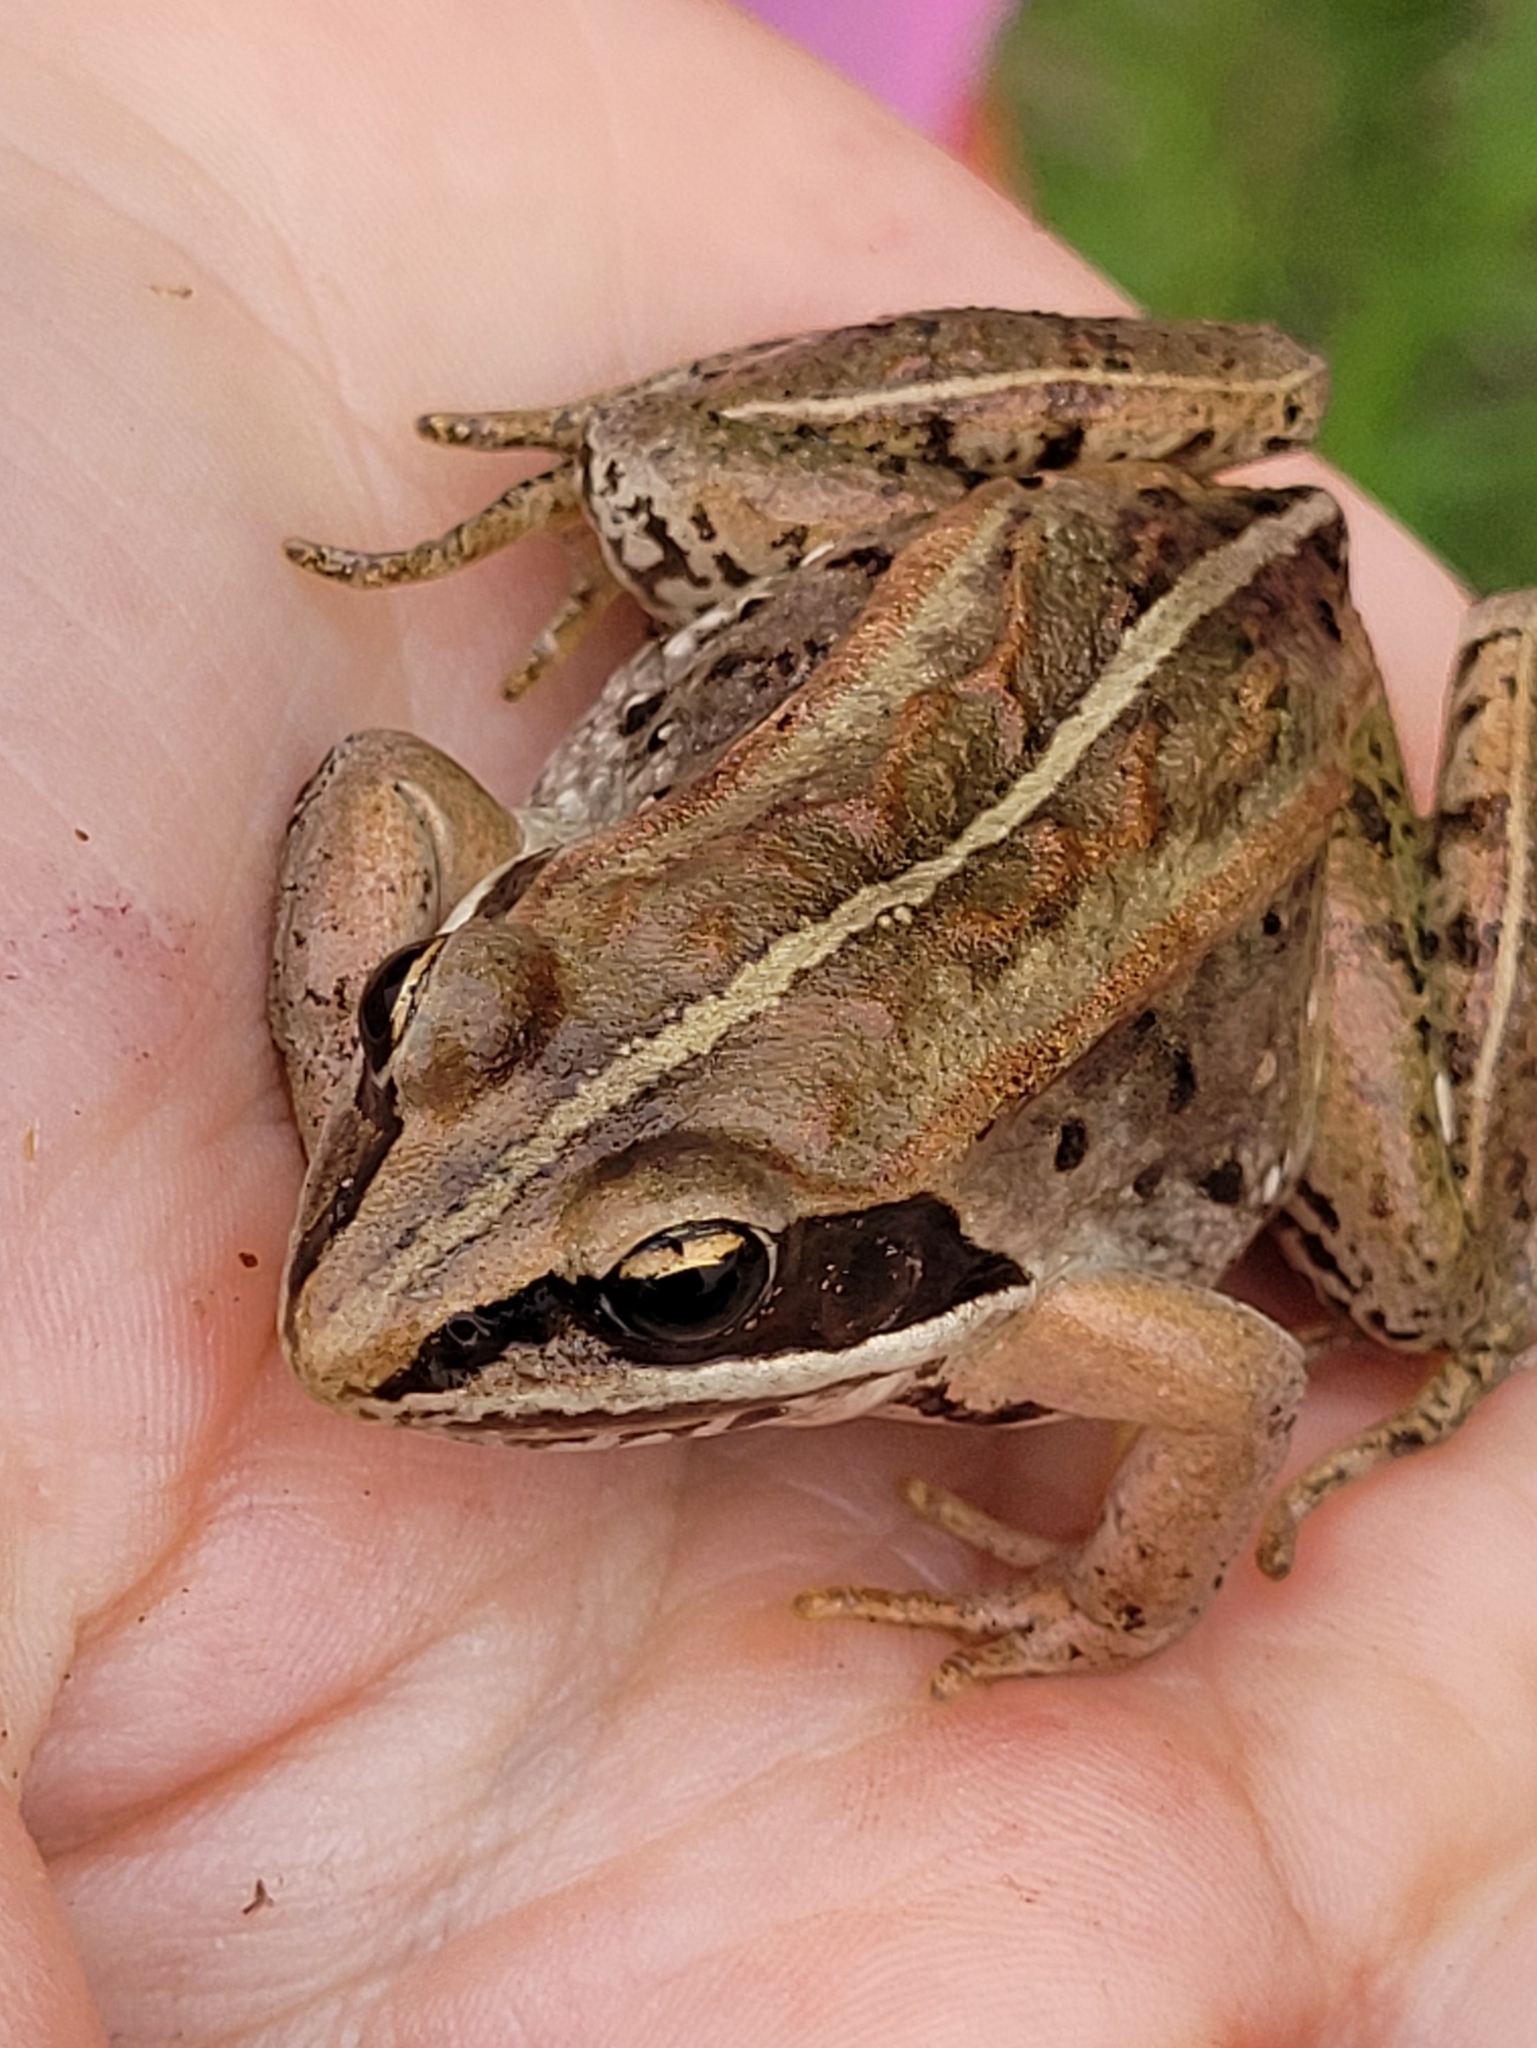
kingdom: Animalia
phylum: Chordata
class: Amphibia
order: Anura
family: Ranidae
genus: Lithobates
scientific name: Lithobates sylvaticus
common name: Wood frog
